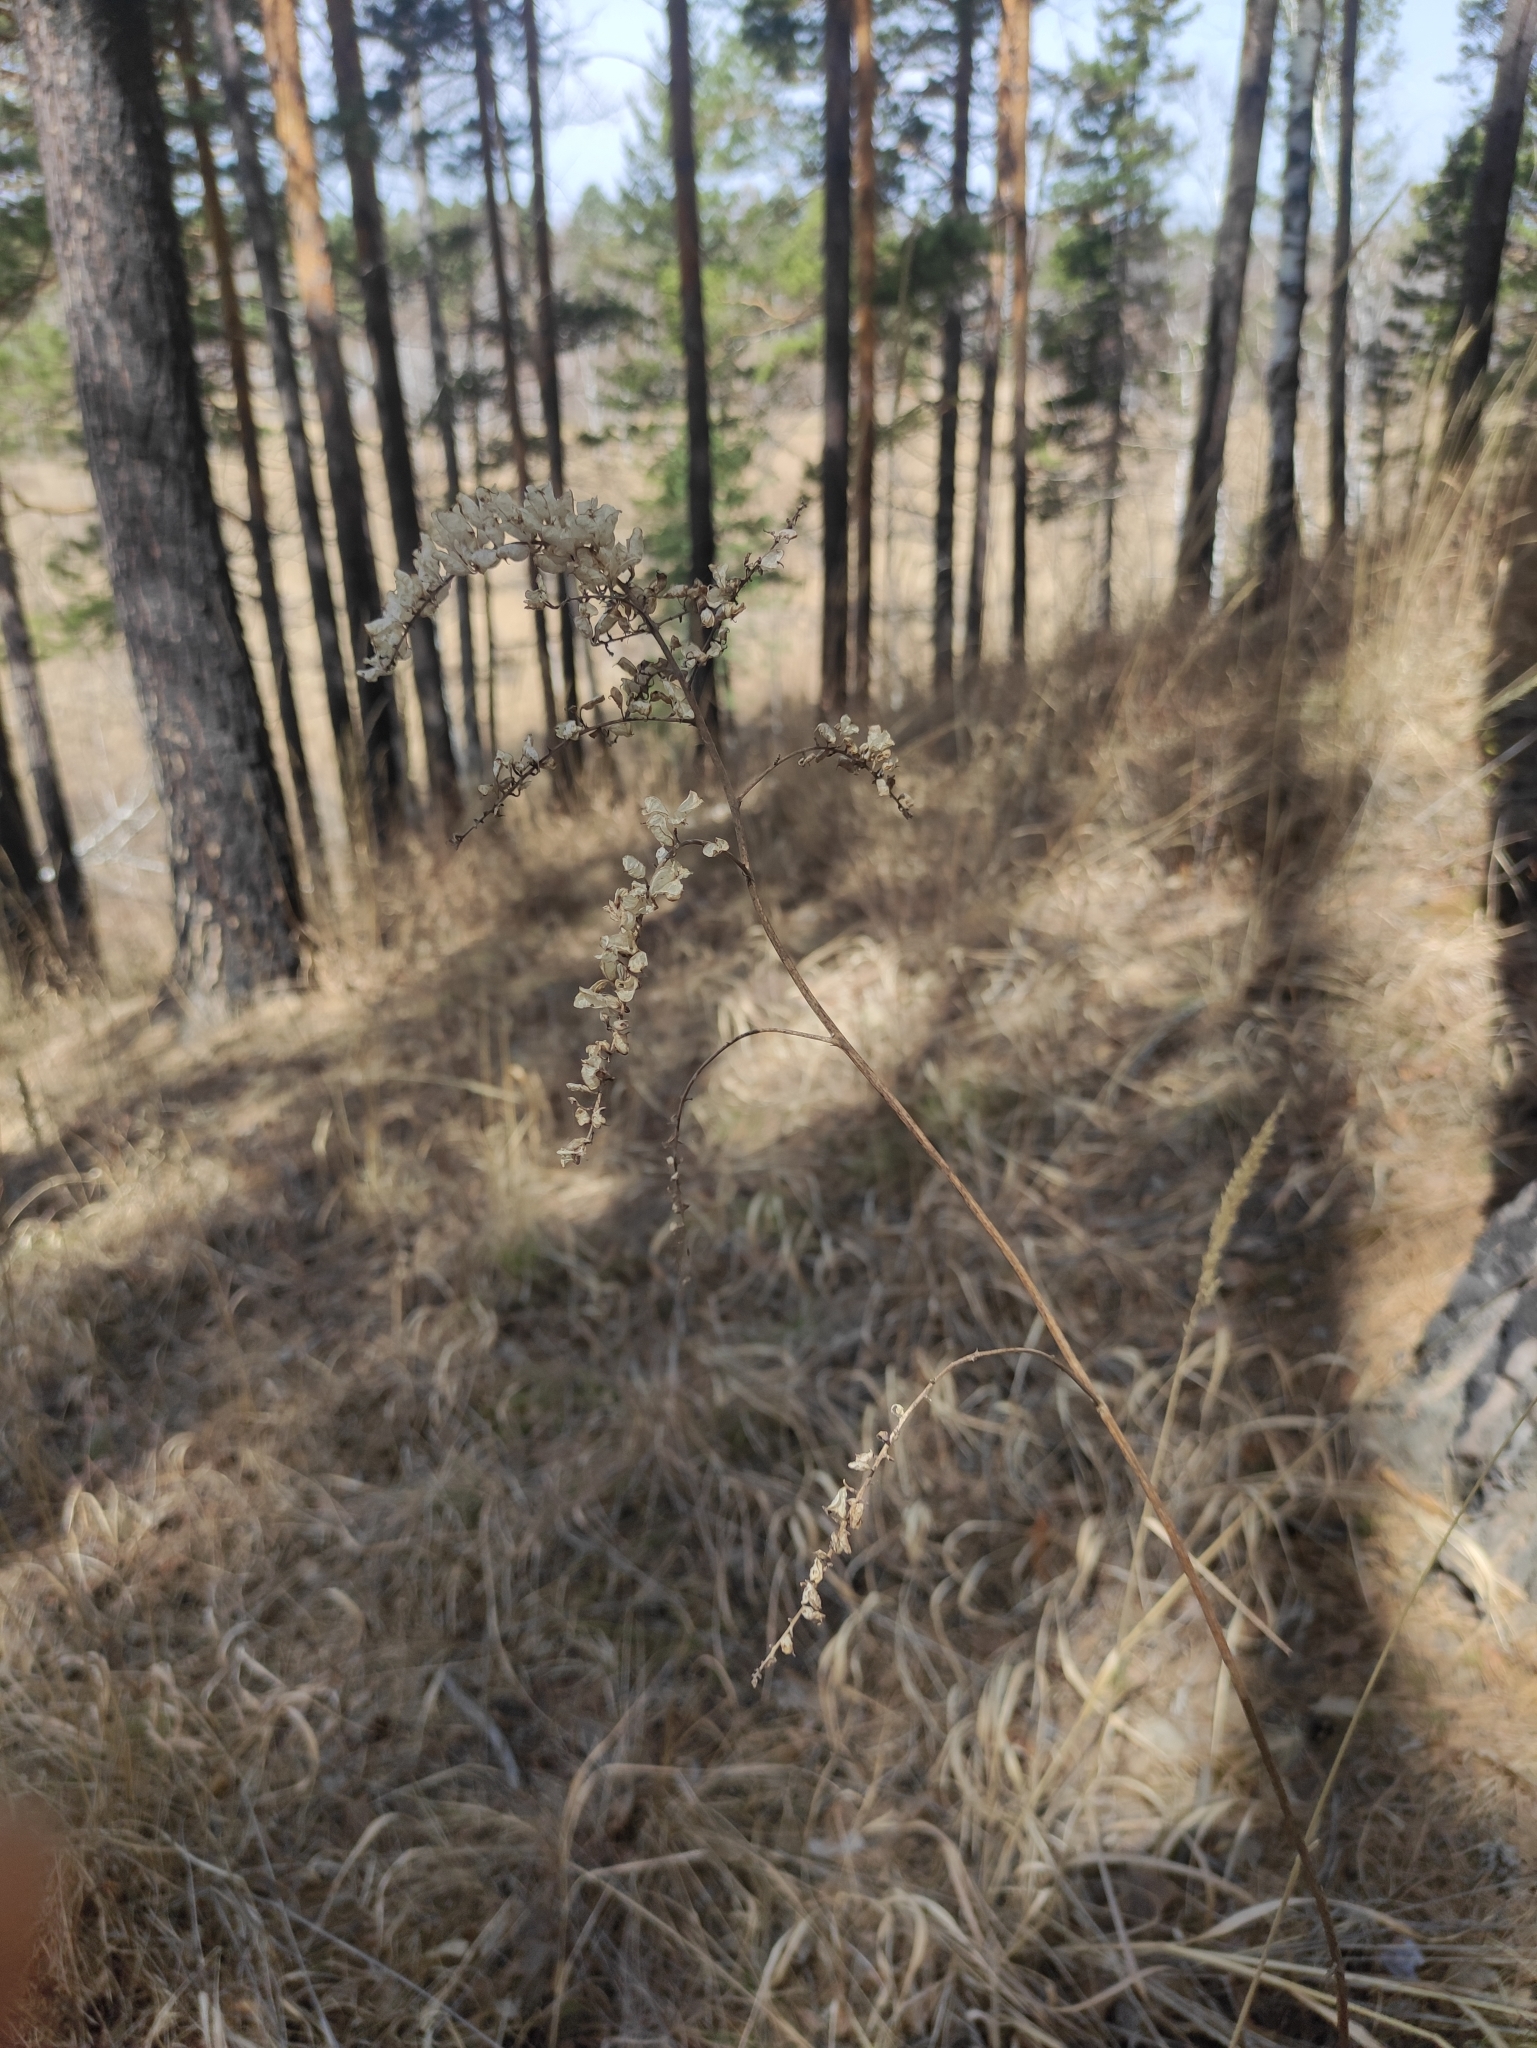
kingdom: Plantae
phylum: Tracheophyta
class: Magnoliopsida
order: Ranunculales
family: Ranunculaceae
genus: Actaea
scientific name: Actaea cimicifuga
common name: Chinese cimicifuga
